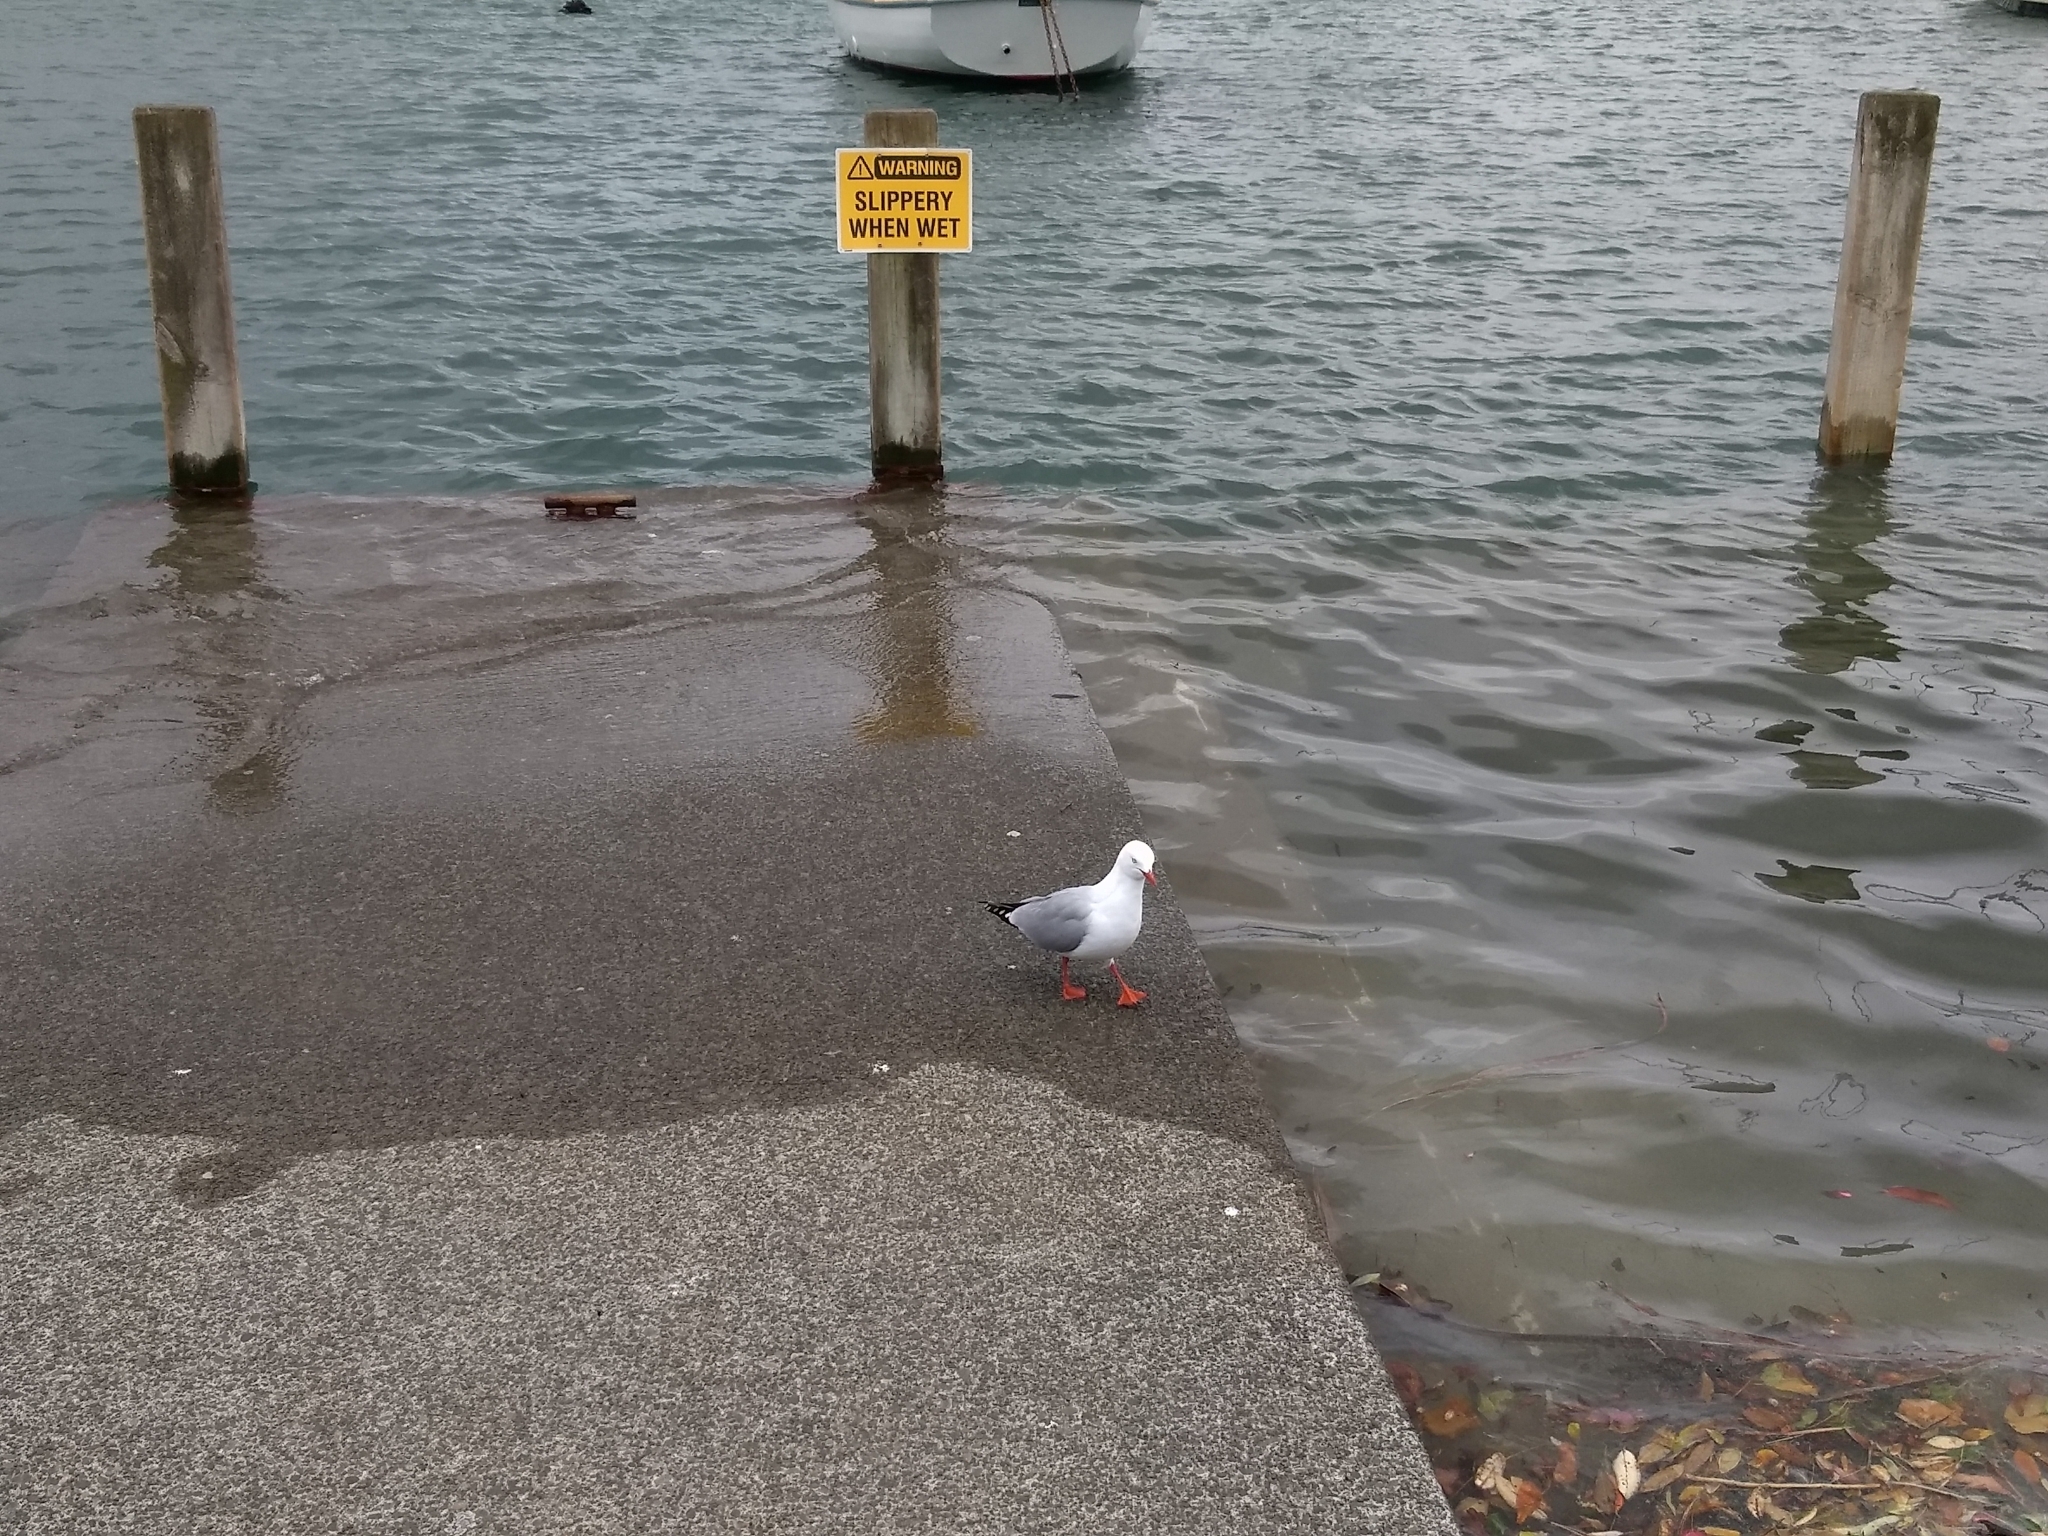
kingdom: Animalia
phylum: Chordata
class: Aves
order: Charadriiformes
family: Laridae
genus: Chroicocephalus
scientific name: Chroicocephalus novaehollandiae
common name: Silver gull
